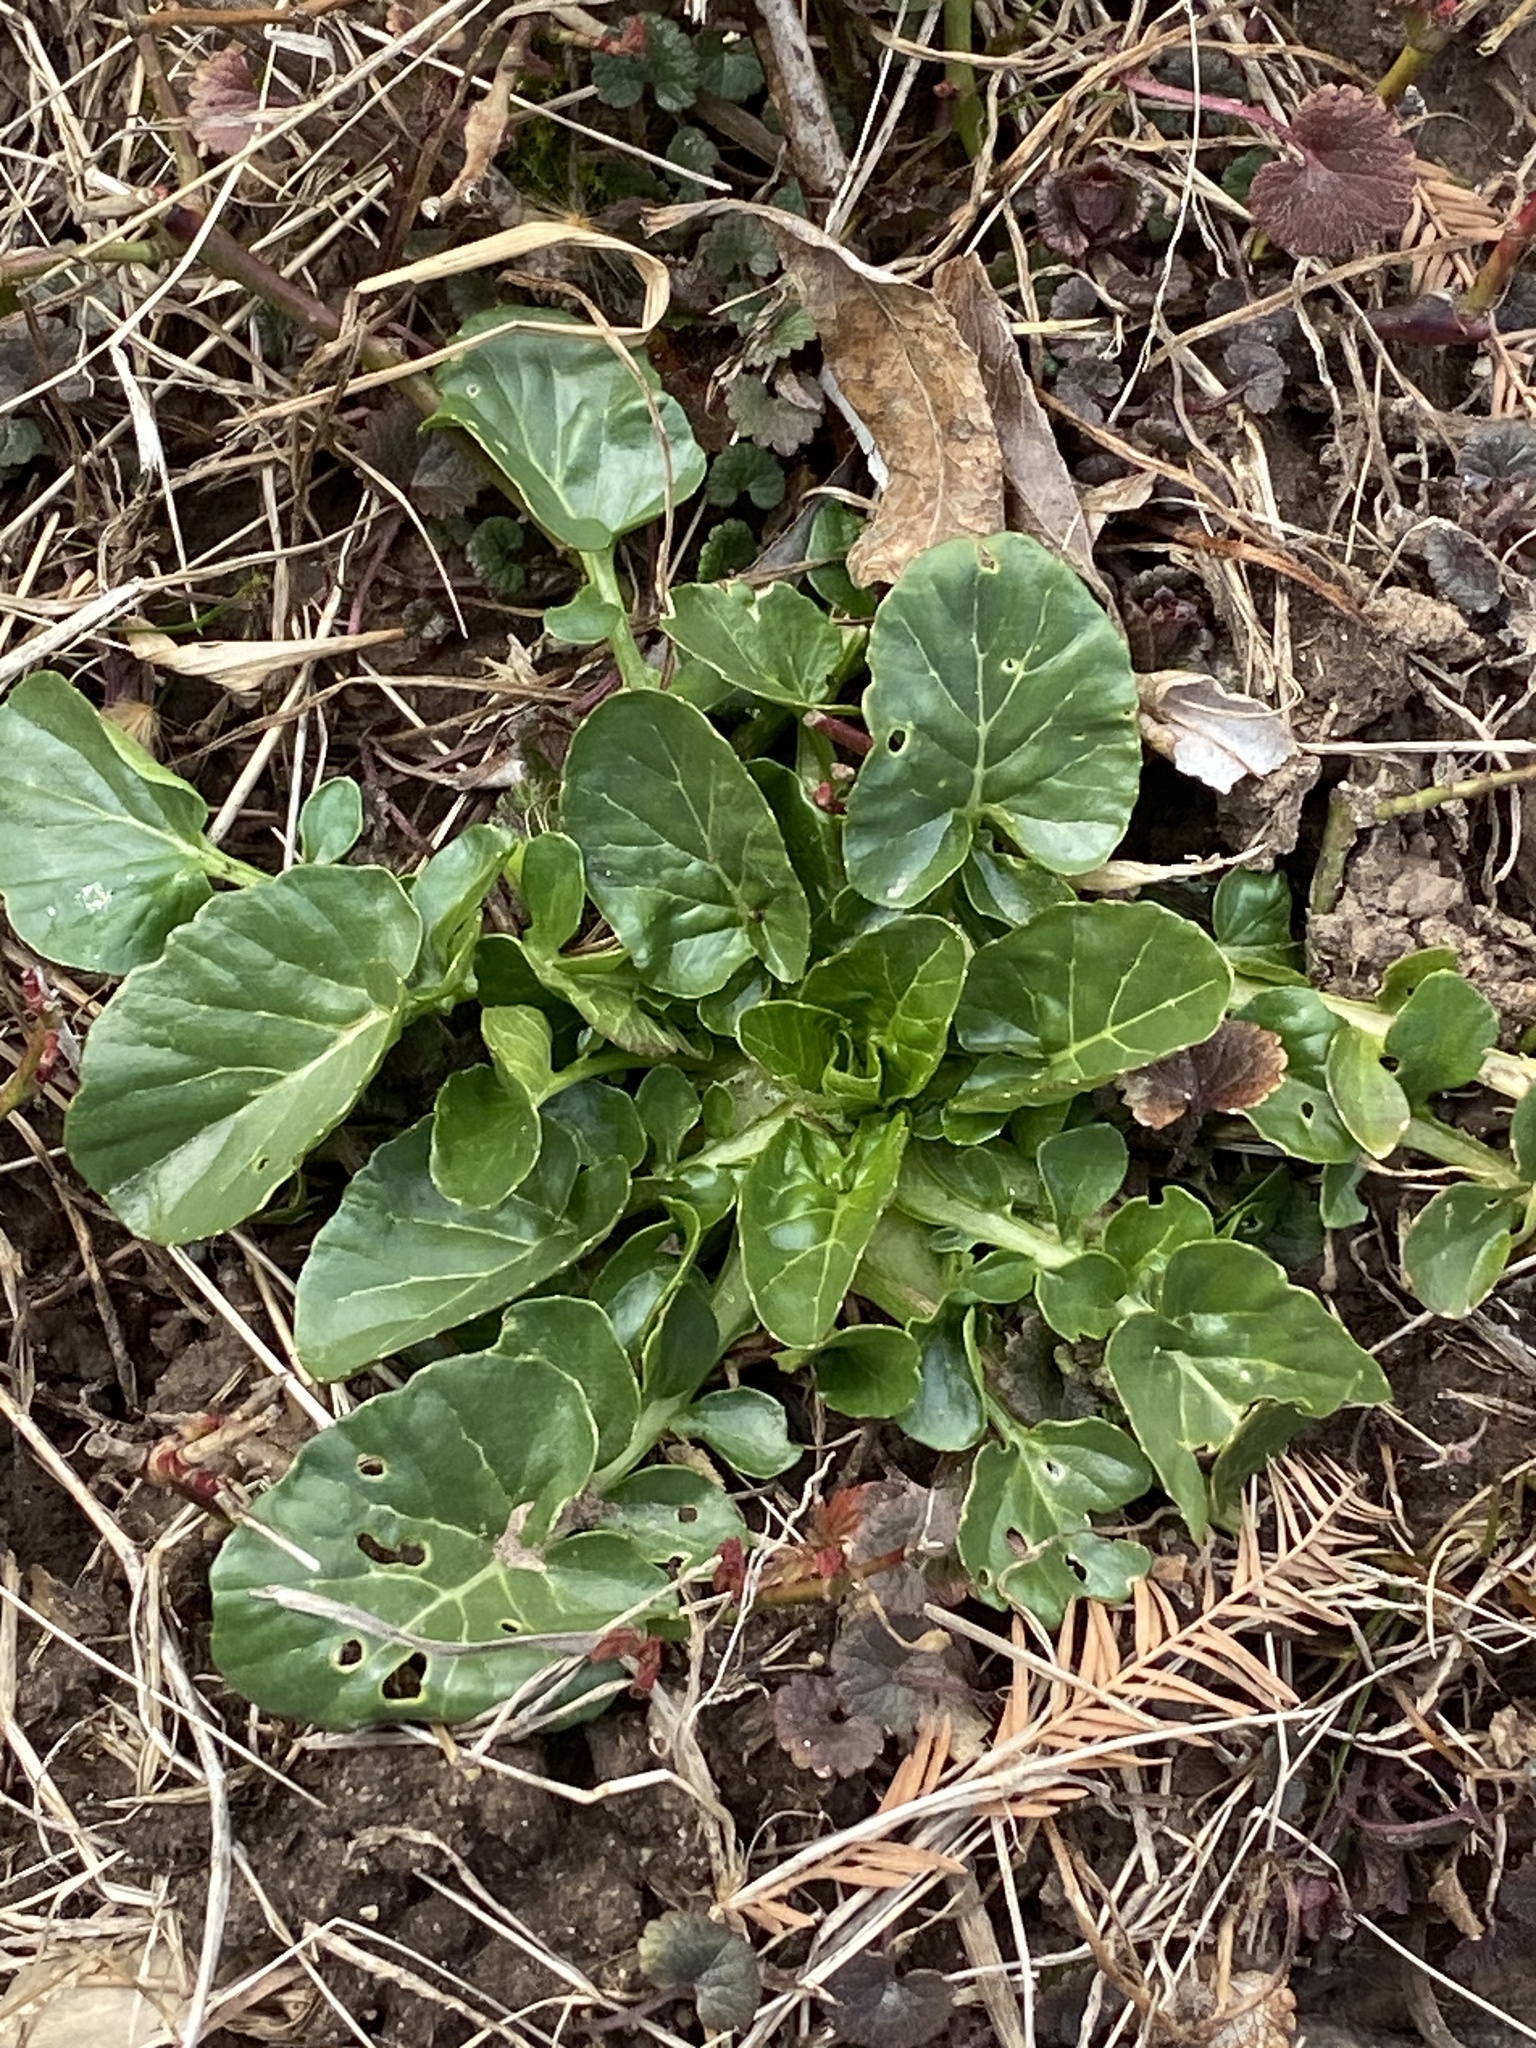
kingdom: Plantae
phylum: Tracheophyta
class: Magnoliopsida
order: Brassicales
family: Brassicaceae
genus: Barbarea
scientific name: Barbarea vulgaris
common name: Cressy-greens
